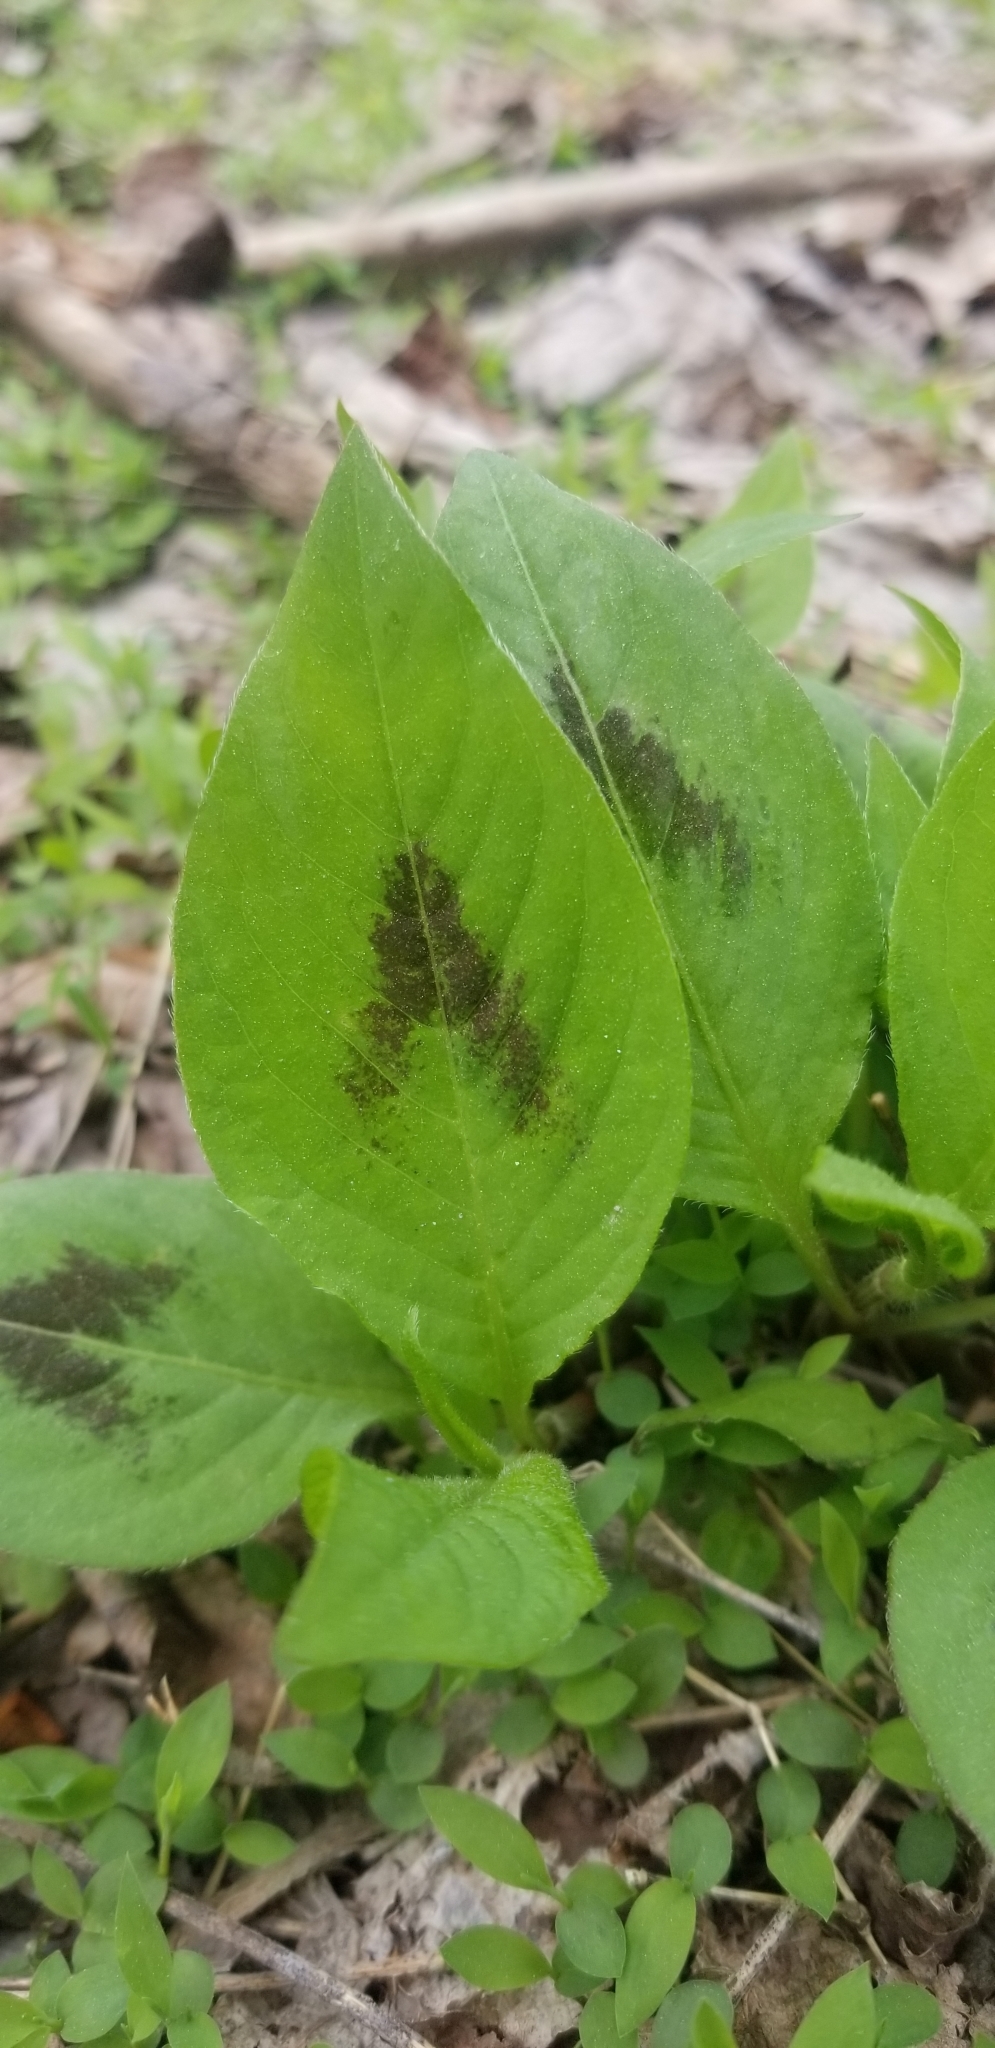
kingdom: Plantae
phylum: Tracheophyta
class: Magnoliopsida
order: Caryophyllales
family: Polygonaceae
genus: Persicaria
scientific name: Persicaria virginiana
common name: Jumpseed
